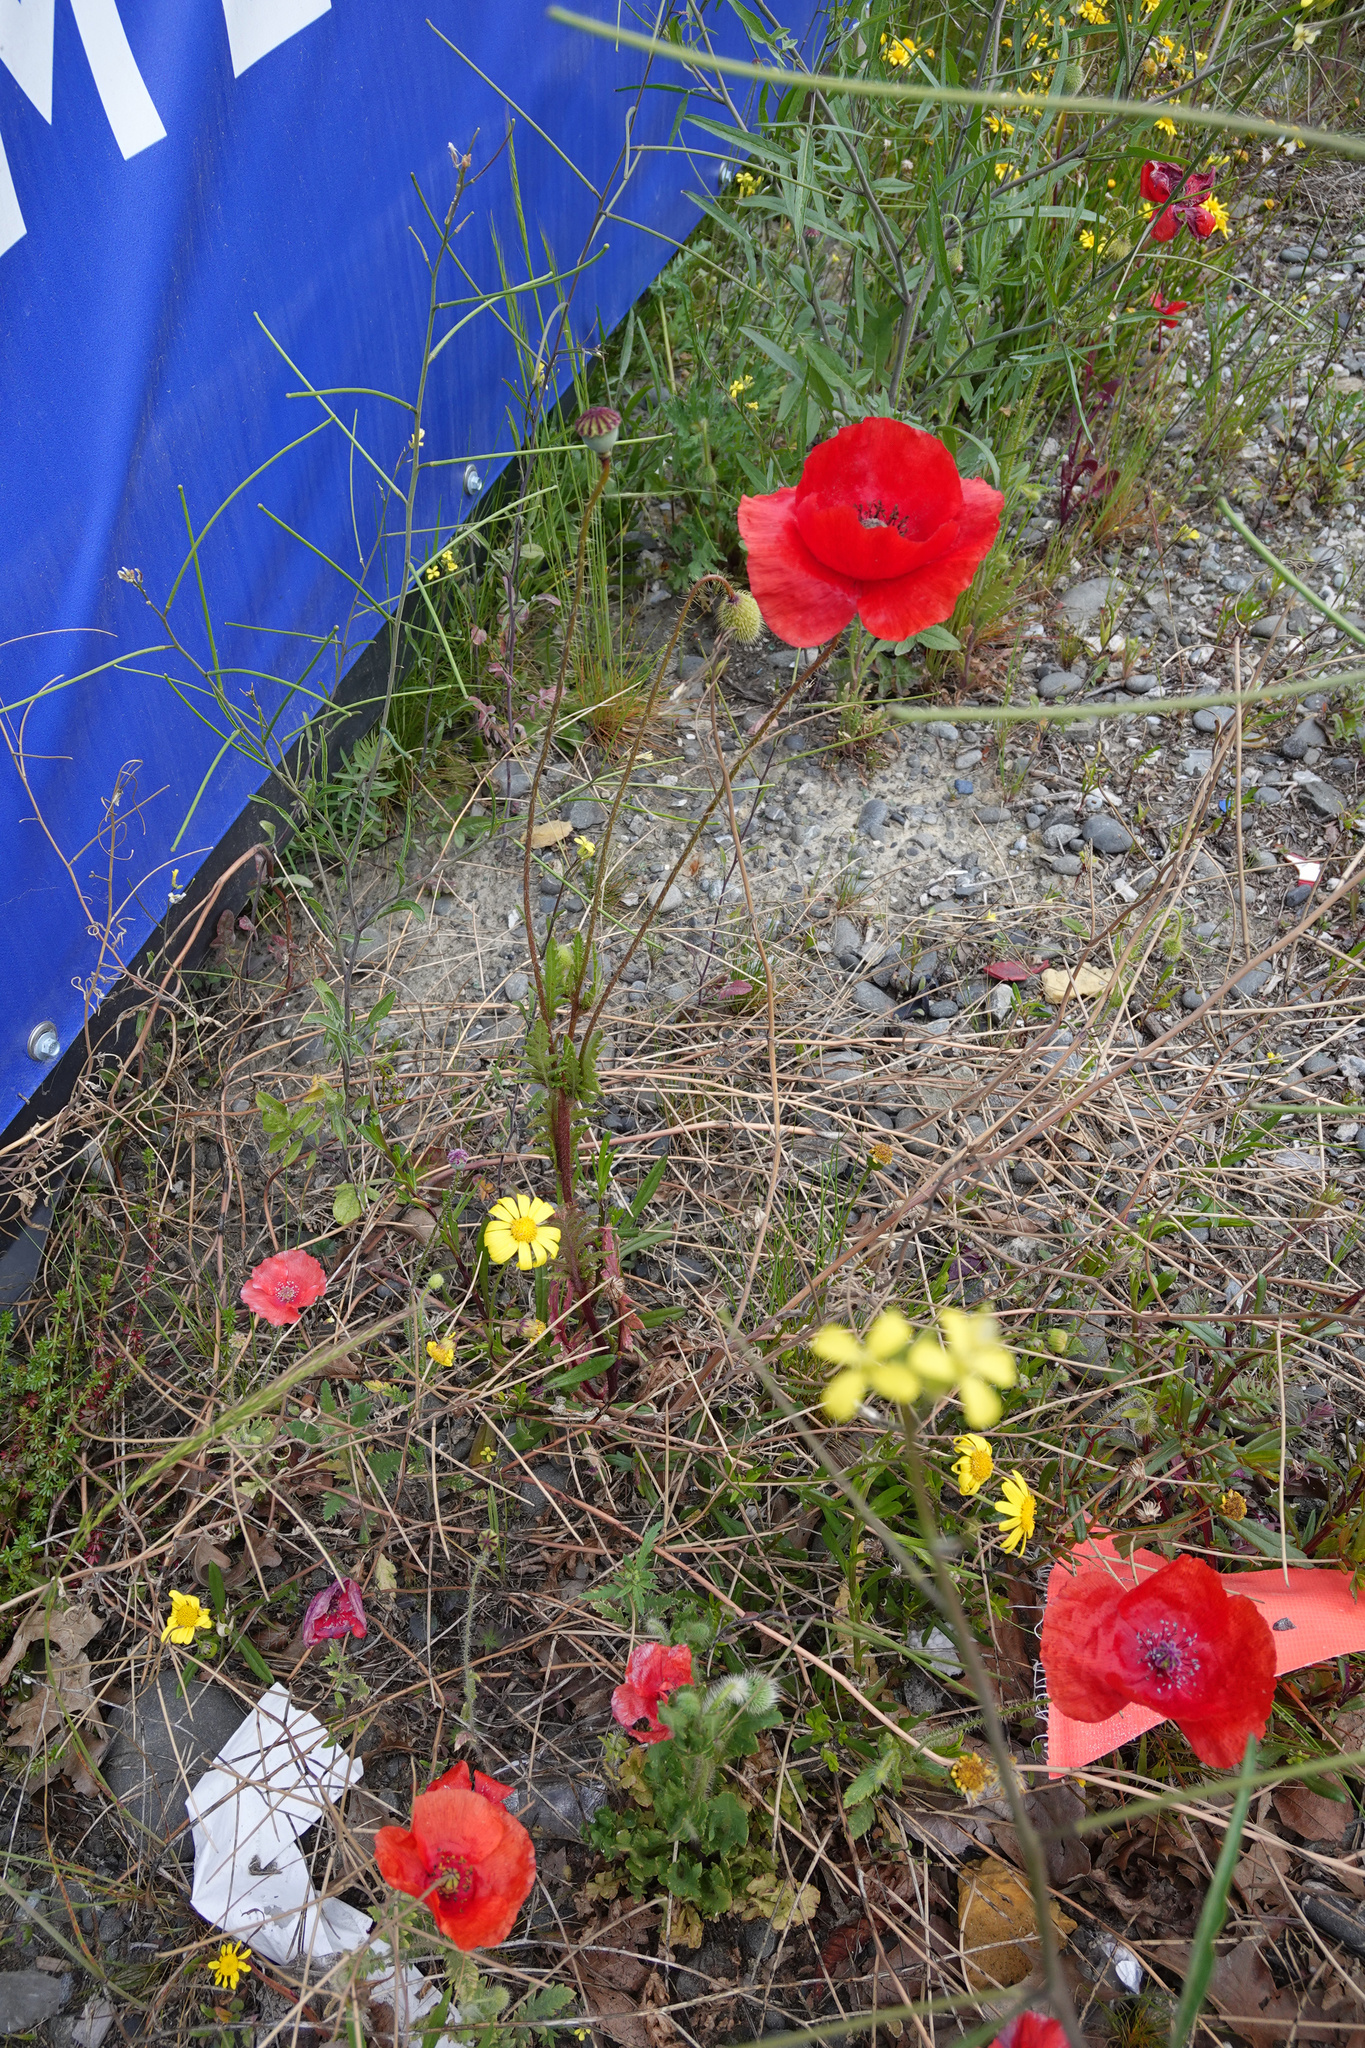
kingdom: Plantae
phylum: Tracheophyta
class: Magnoliopsida
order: Ranunculales
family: Papaveraceae
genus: Papaver
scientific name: Papaver rhoeas
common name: Corn poppy
